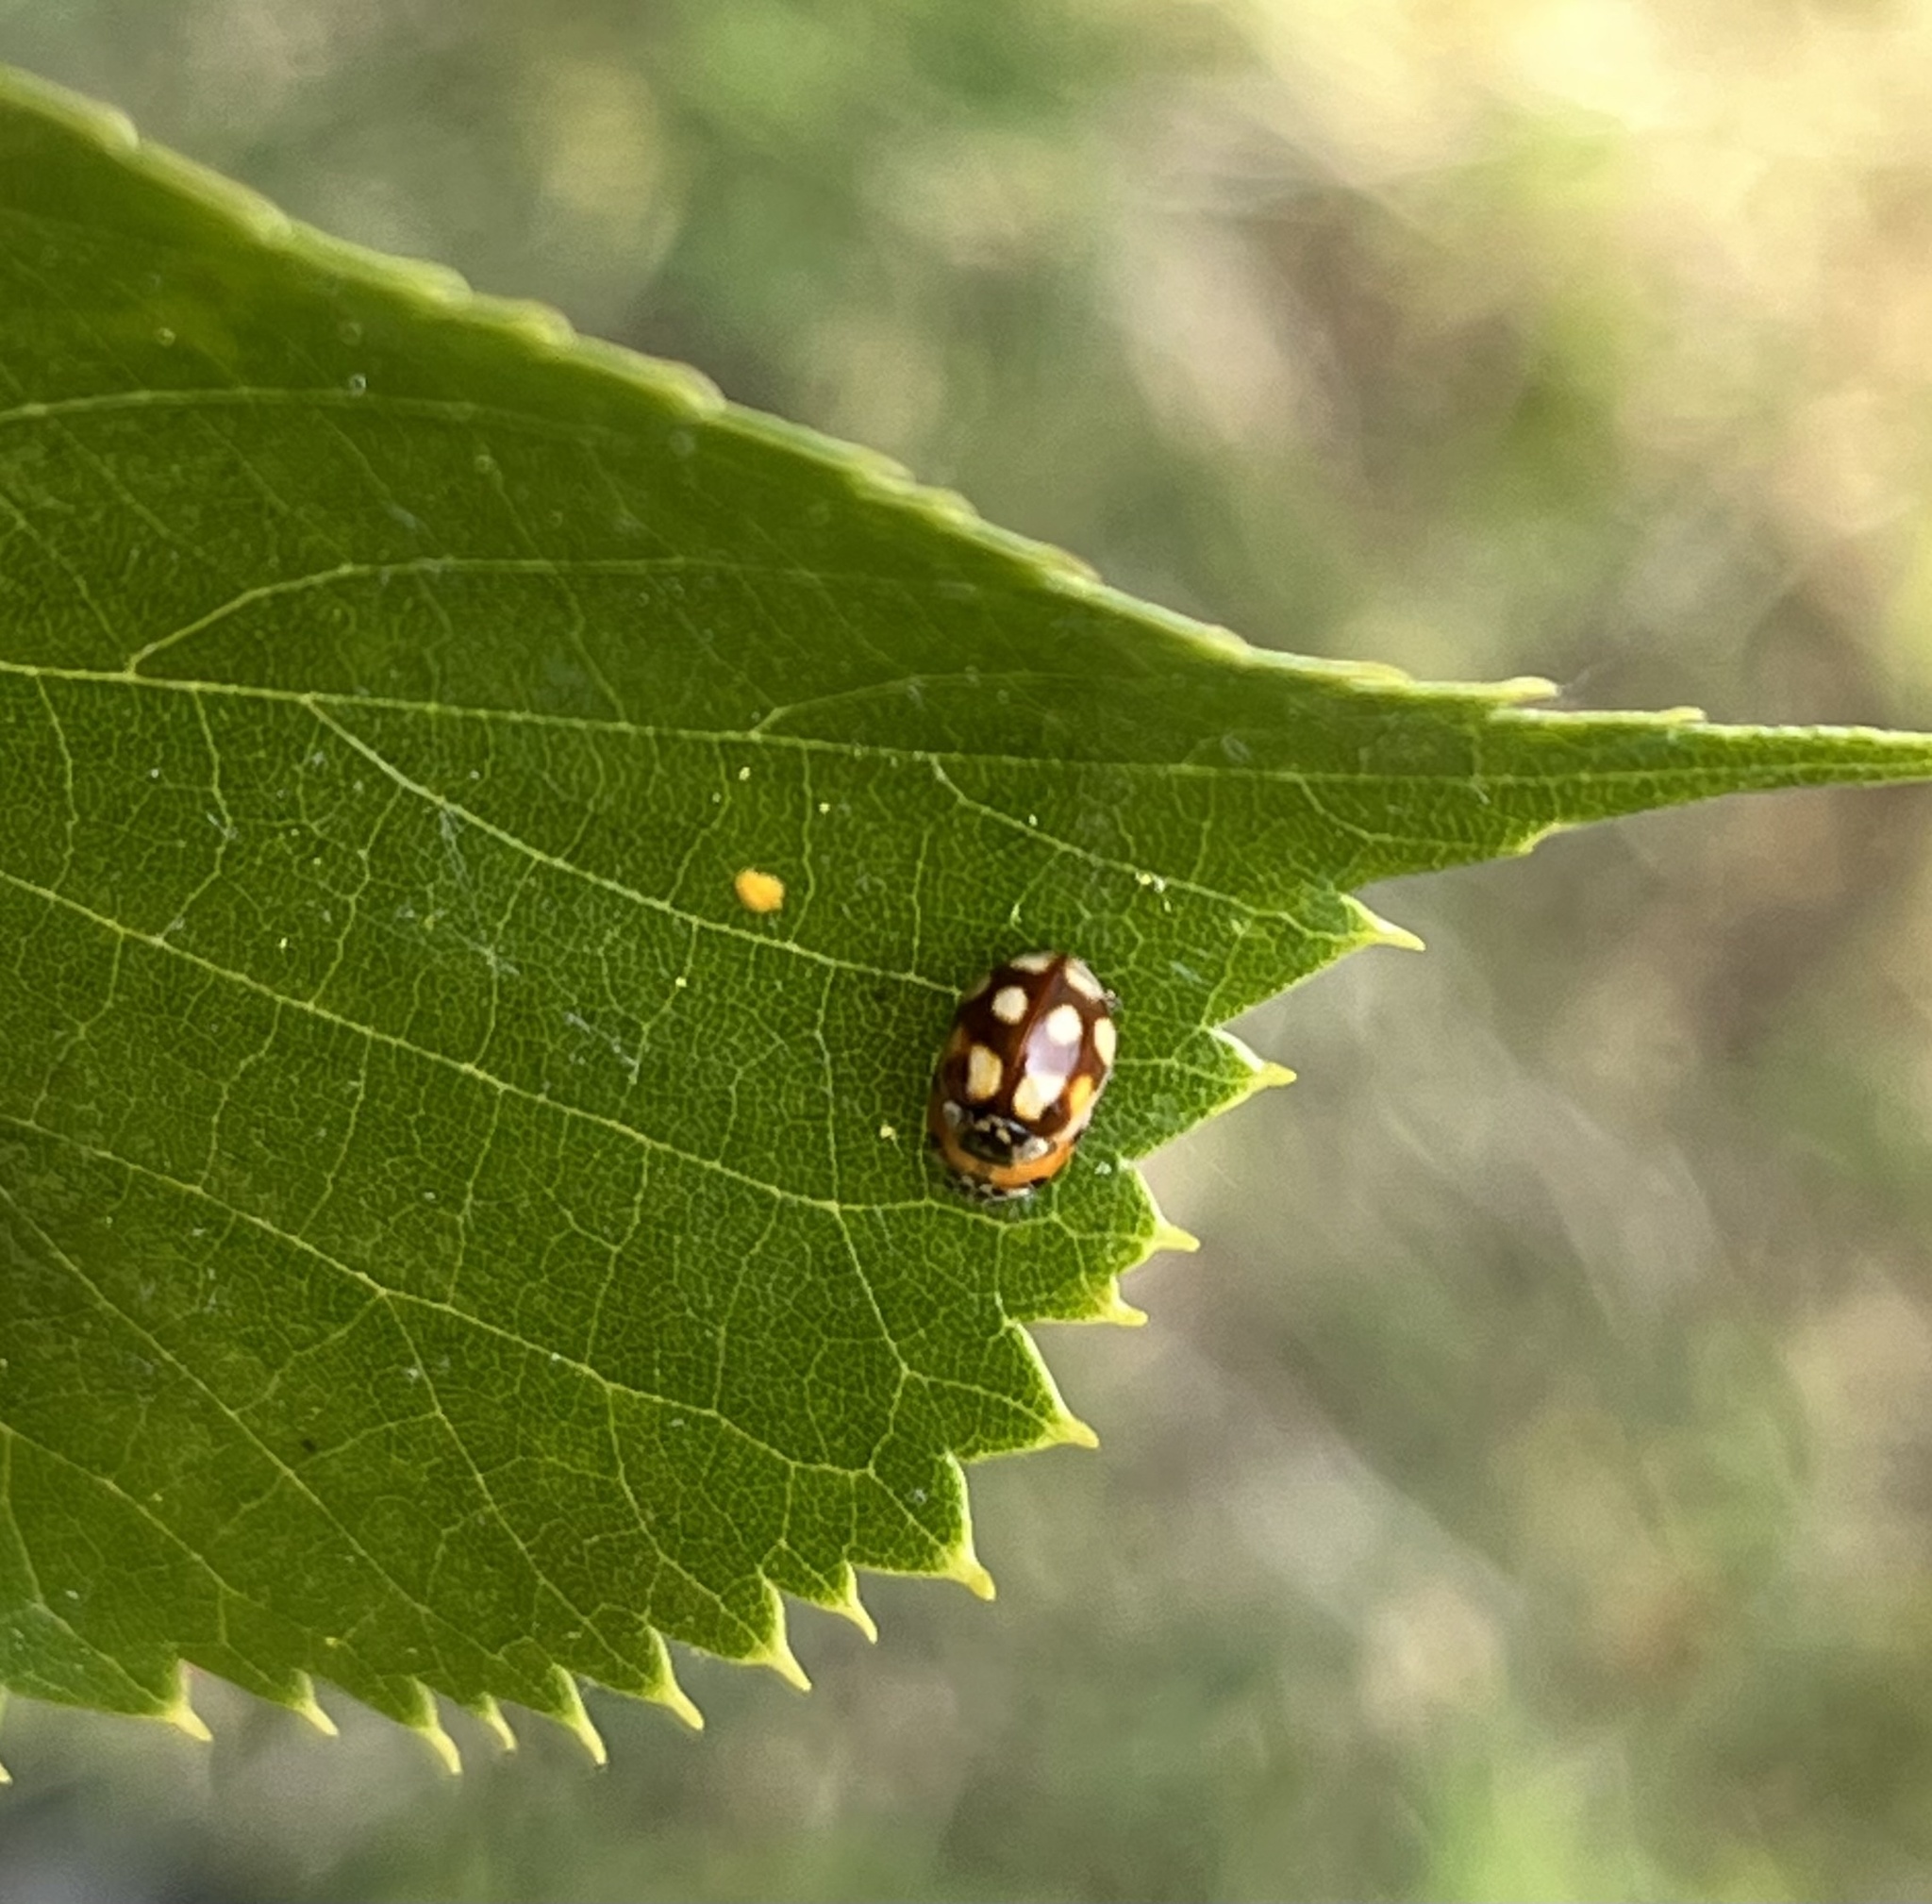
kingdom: Animalia
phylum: Arthropoda
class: Insecta
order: Coleoptera
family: Coccinellidae
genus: Adalia
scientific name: Adalia decempunctata
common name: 10-spot ladybird
